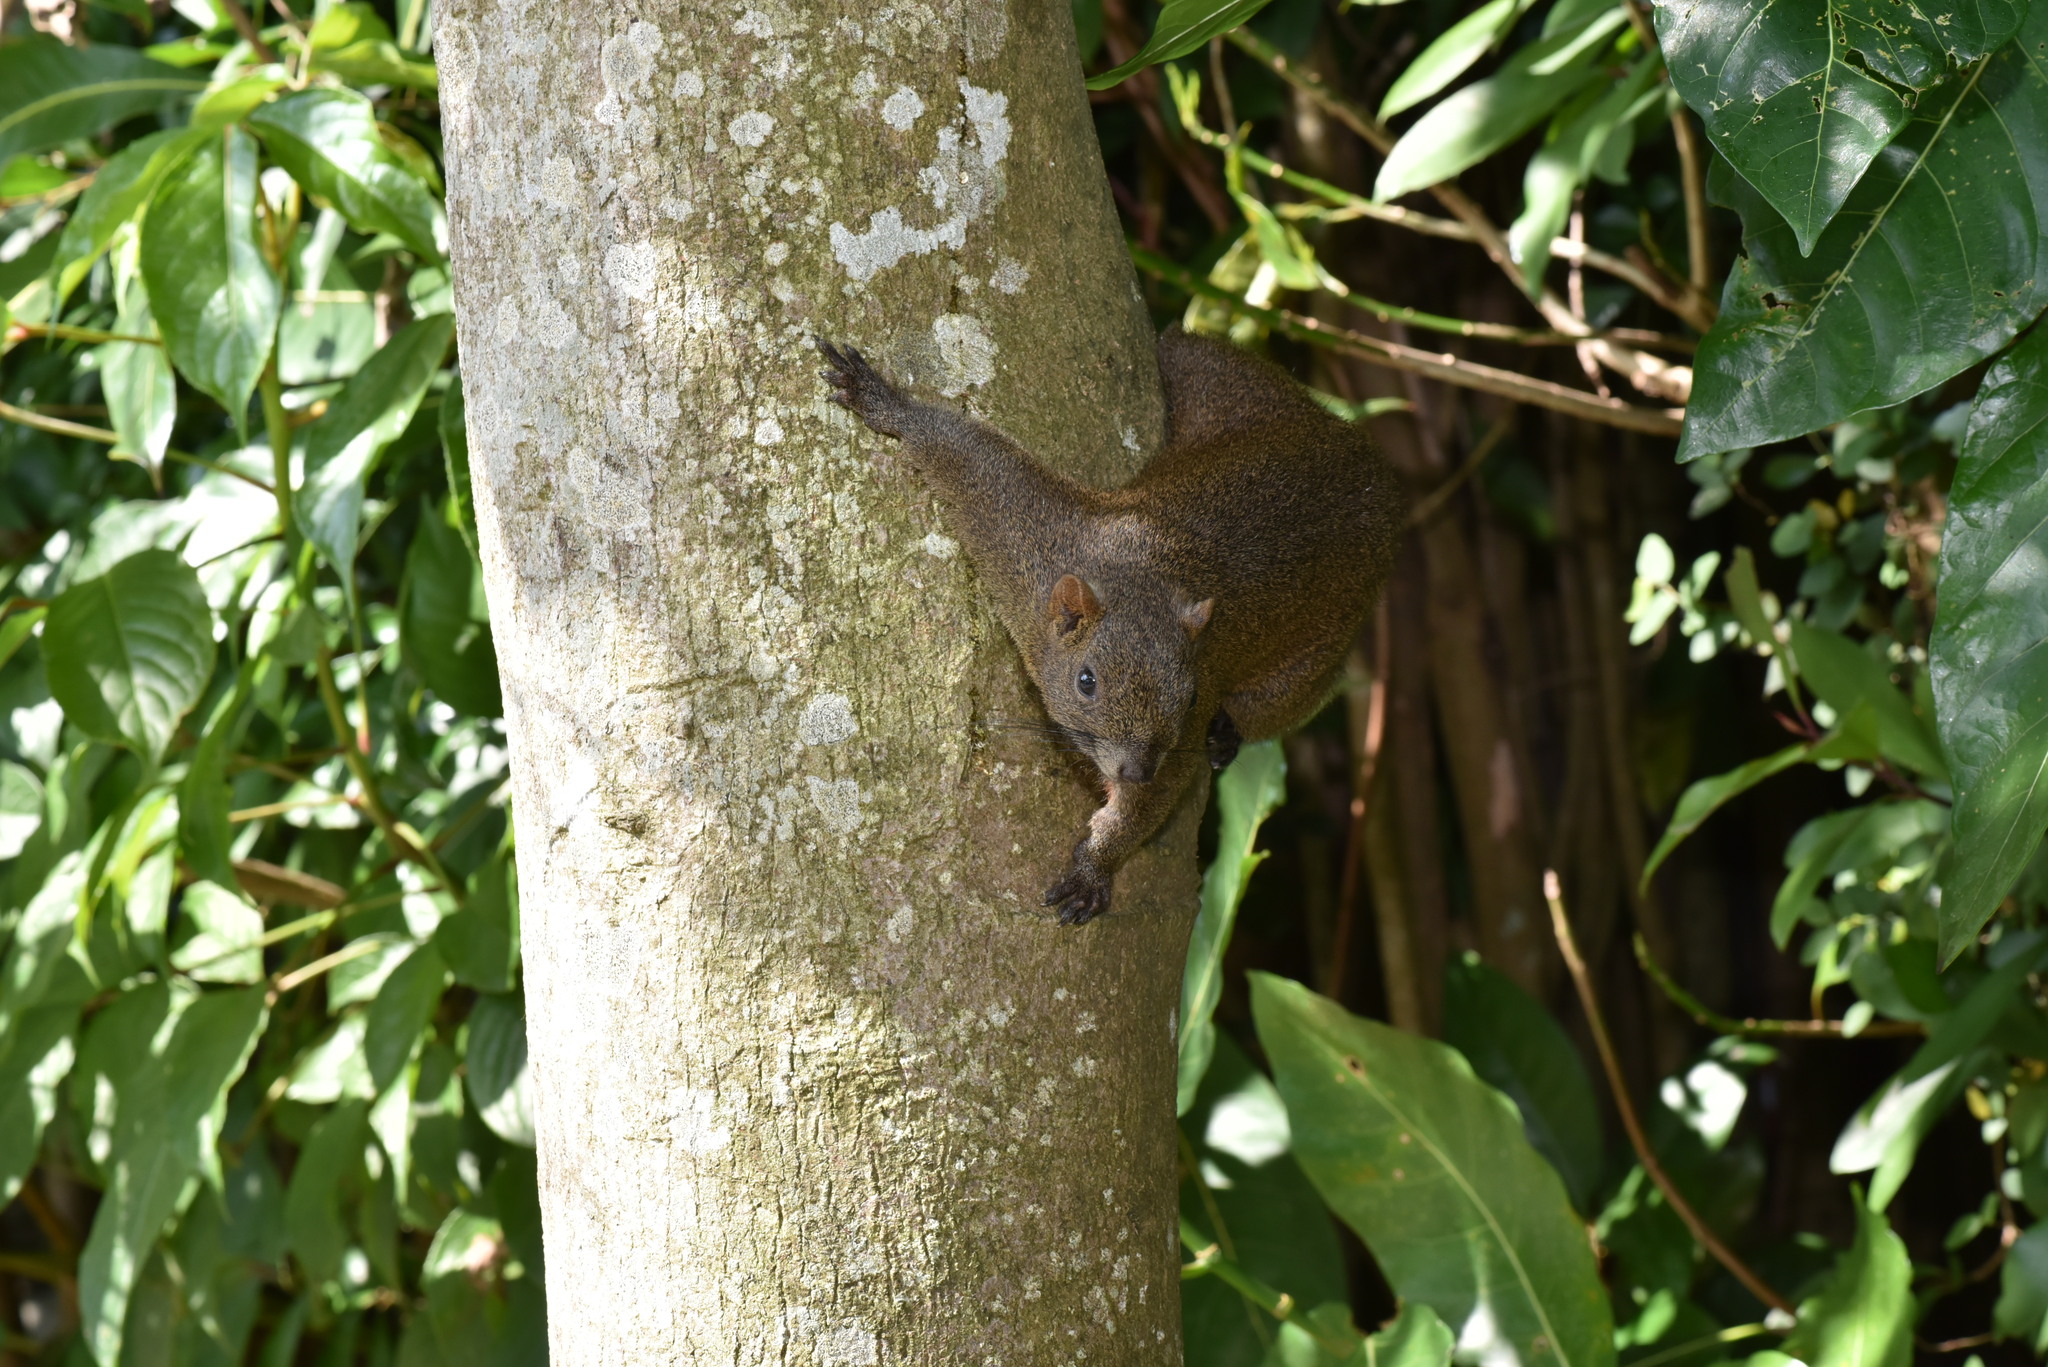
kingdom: Animalia
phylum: Chordata
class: Mammalia
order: Rodentia
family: Sciuridae
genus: Callosciurus
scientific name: Callosciurus erythraeus
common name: Pallas's squirrel
